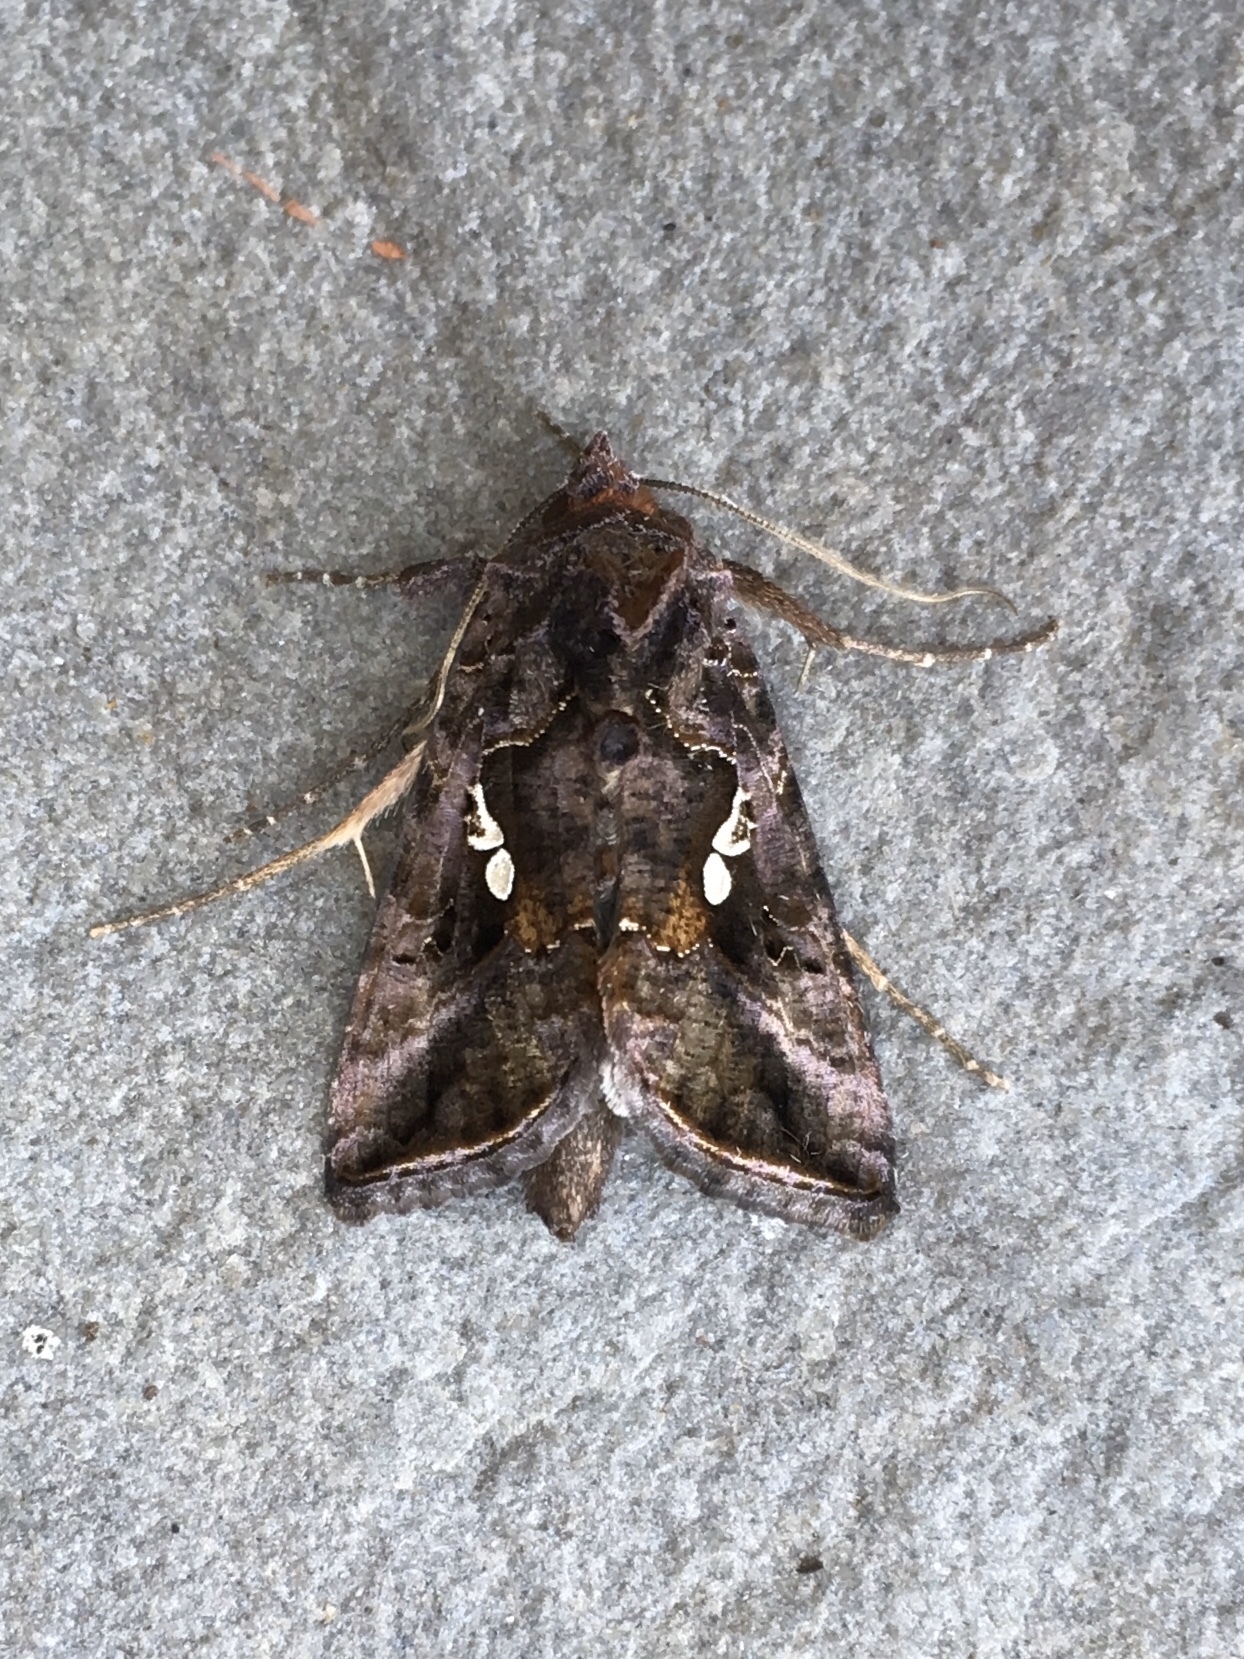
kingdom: Animalia
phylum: Arthropoda
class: Insecta
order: Lepidoptera
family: Noctuidae
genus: Autographa
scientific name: Autographa precationis
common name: Common looper moth
